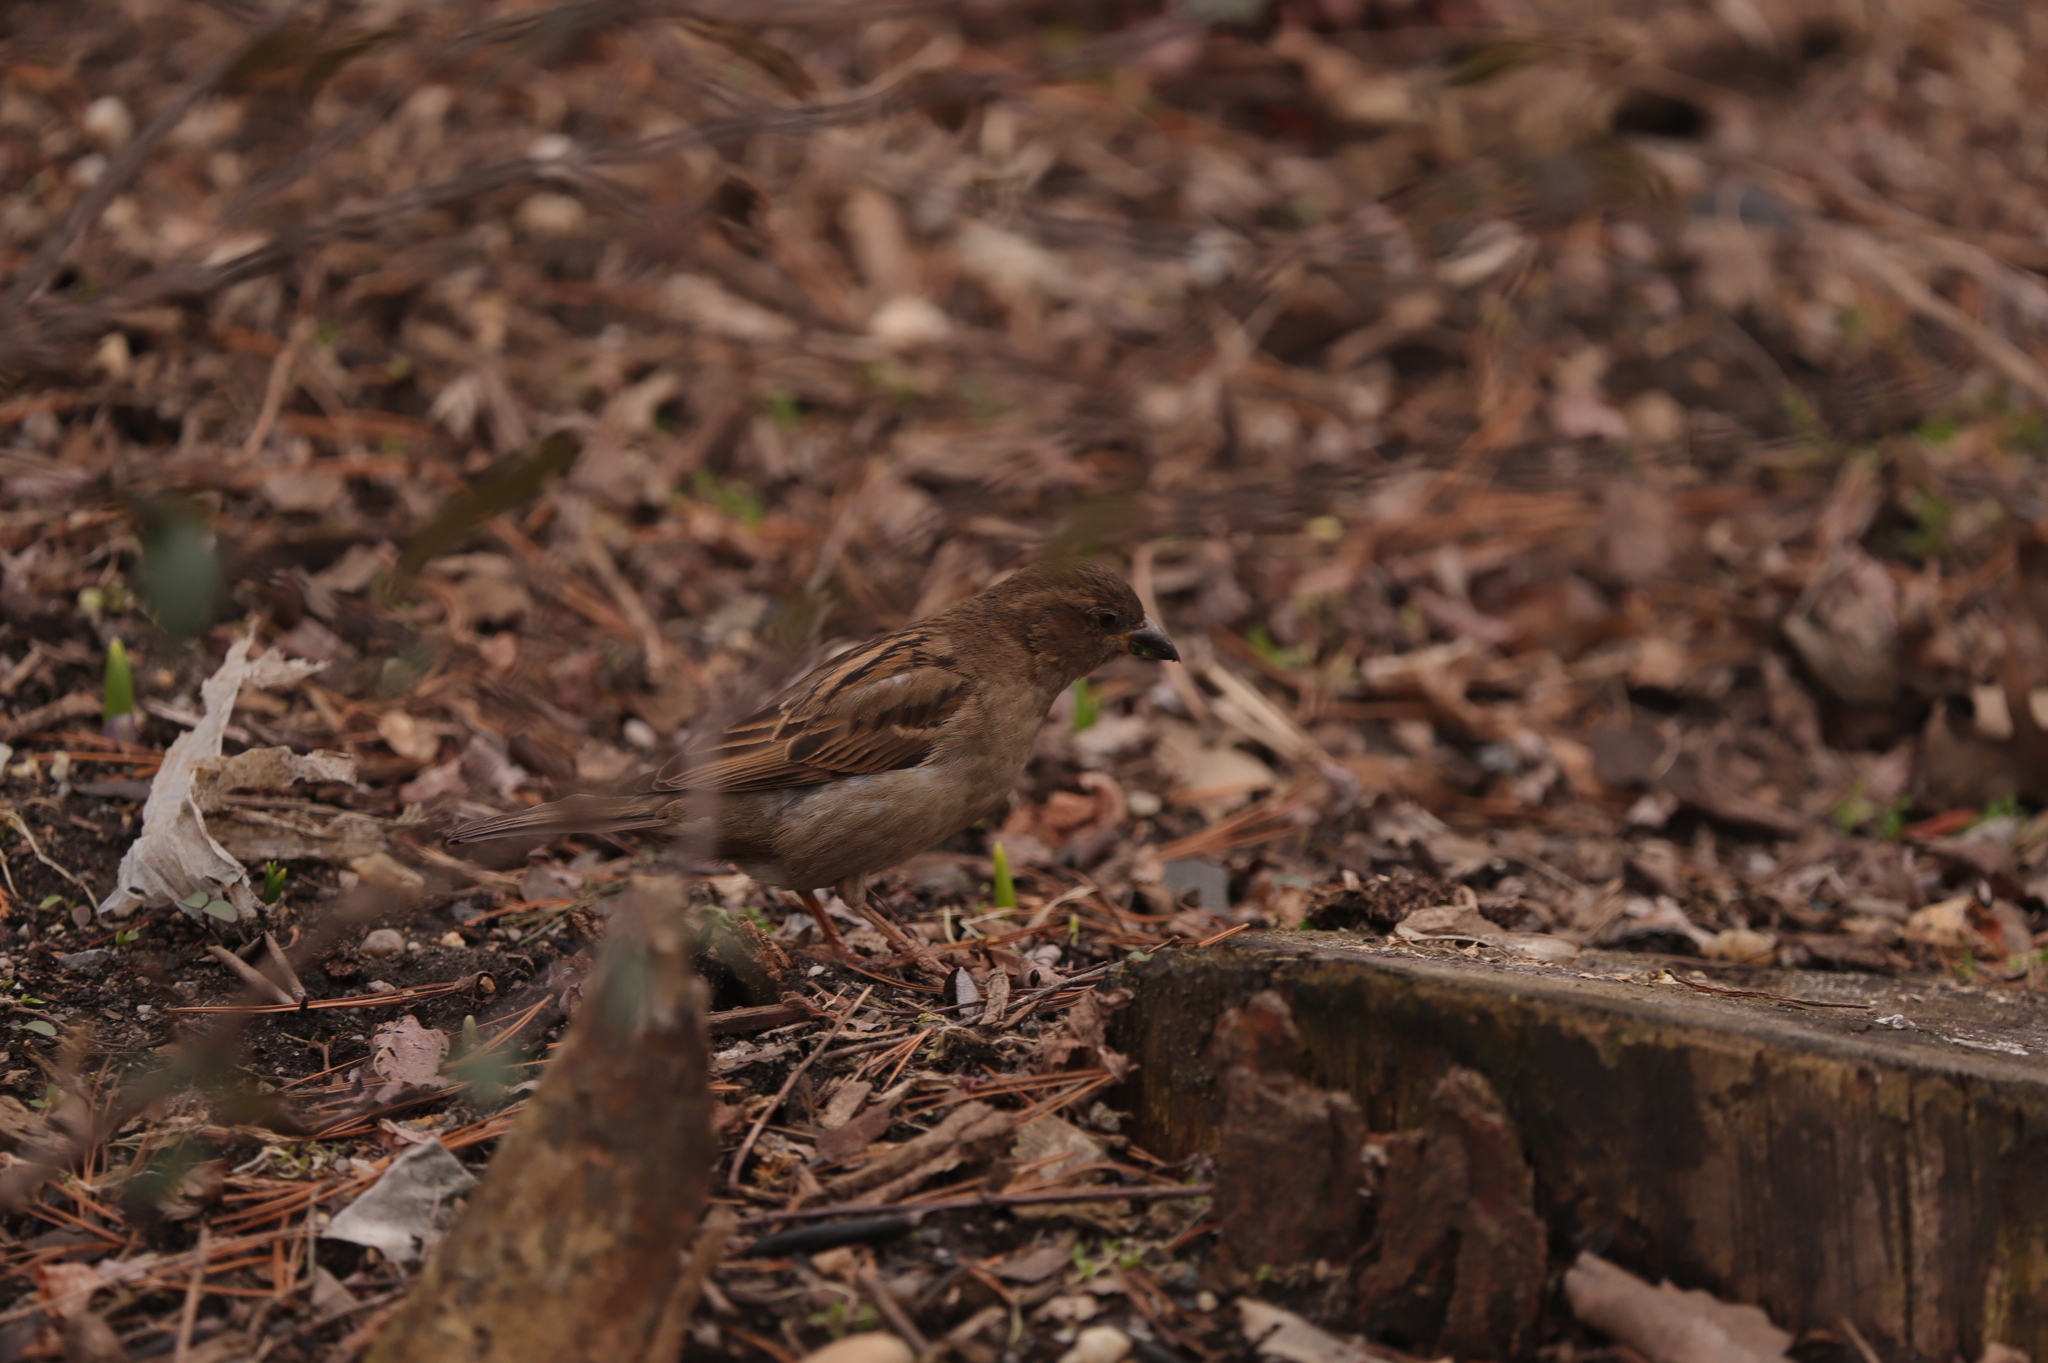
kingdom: Animalia
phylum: Chordata
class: Aves
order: Passeriformes
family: Passeridae
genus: Passer
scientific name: Passer domesticus
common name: House sparrow
